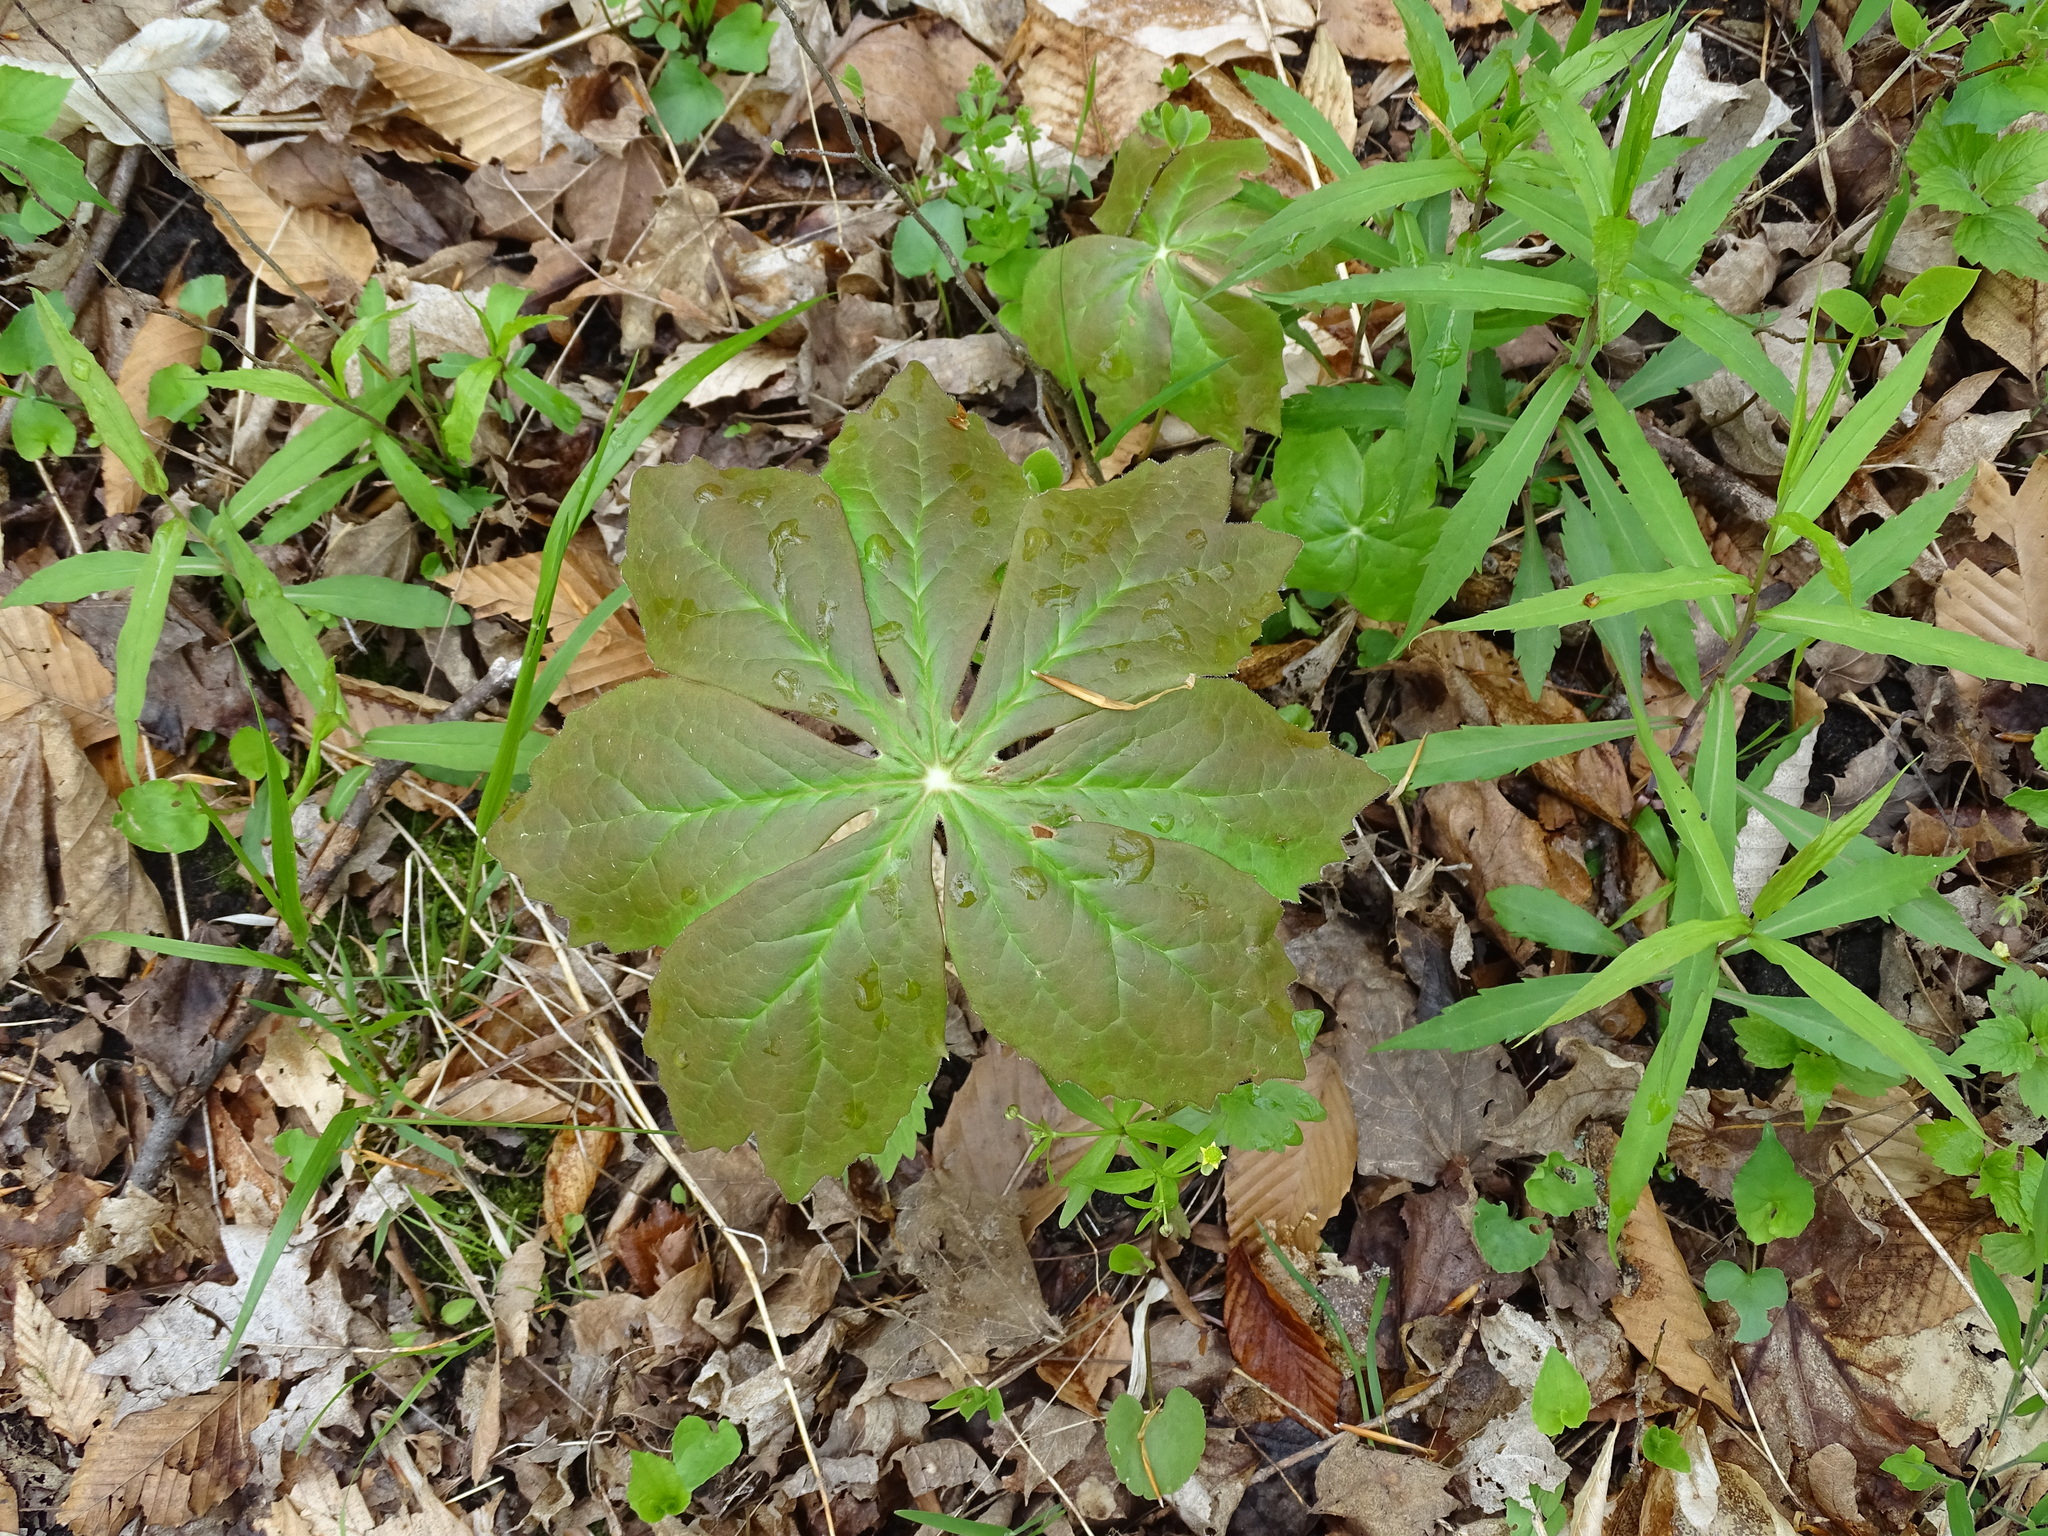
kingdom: Plantae
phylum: Tracheophyta
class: Magnoliopsida
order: Ranunculales
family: Berberidaceae
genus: Podophyllum
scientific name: Podophyllum peltatum
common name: Wild mandrake
